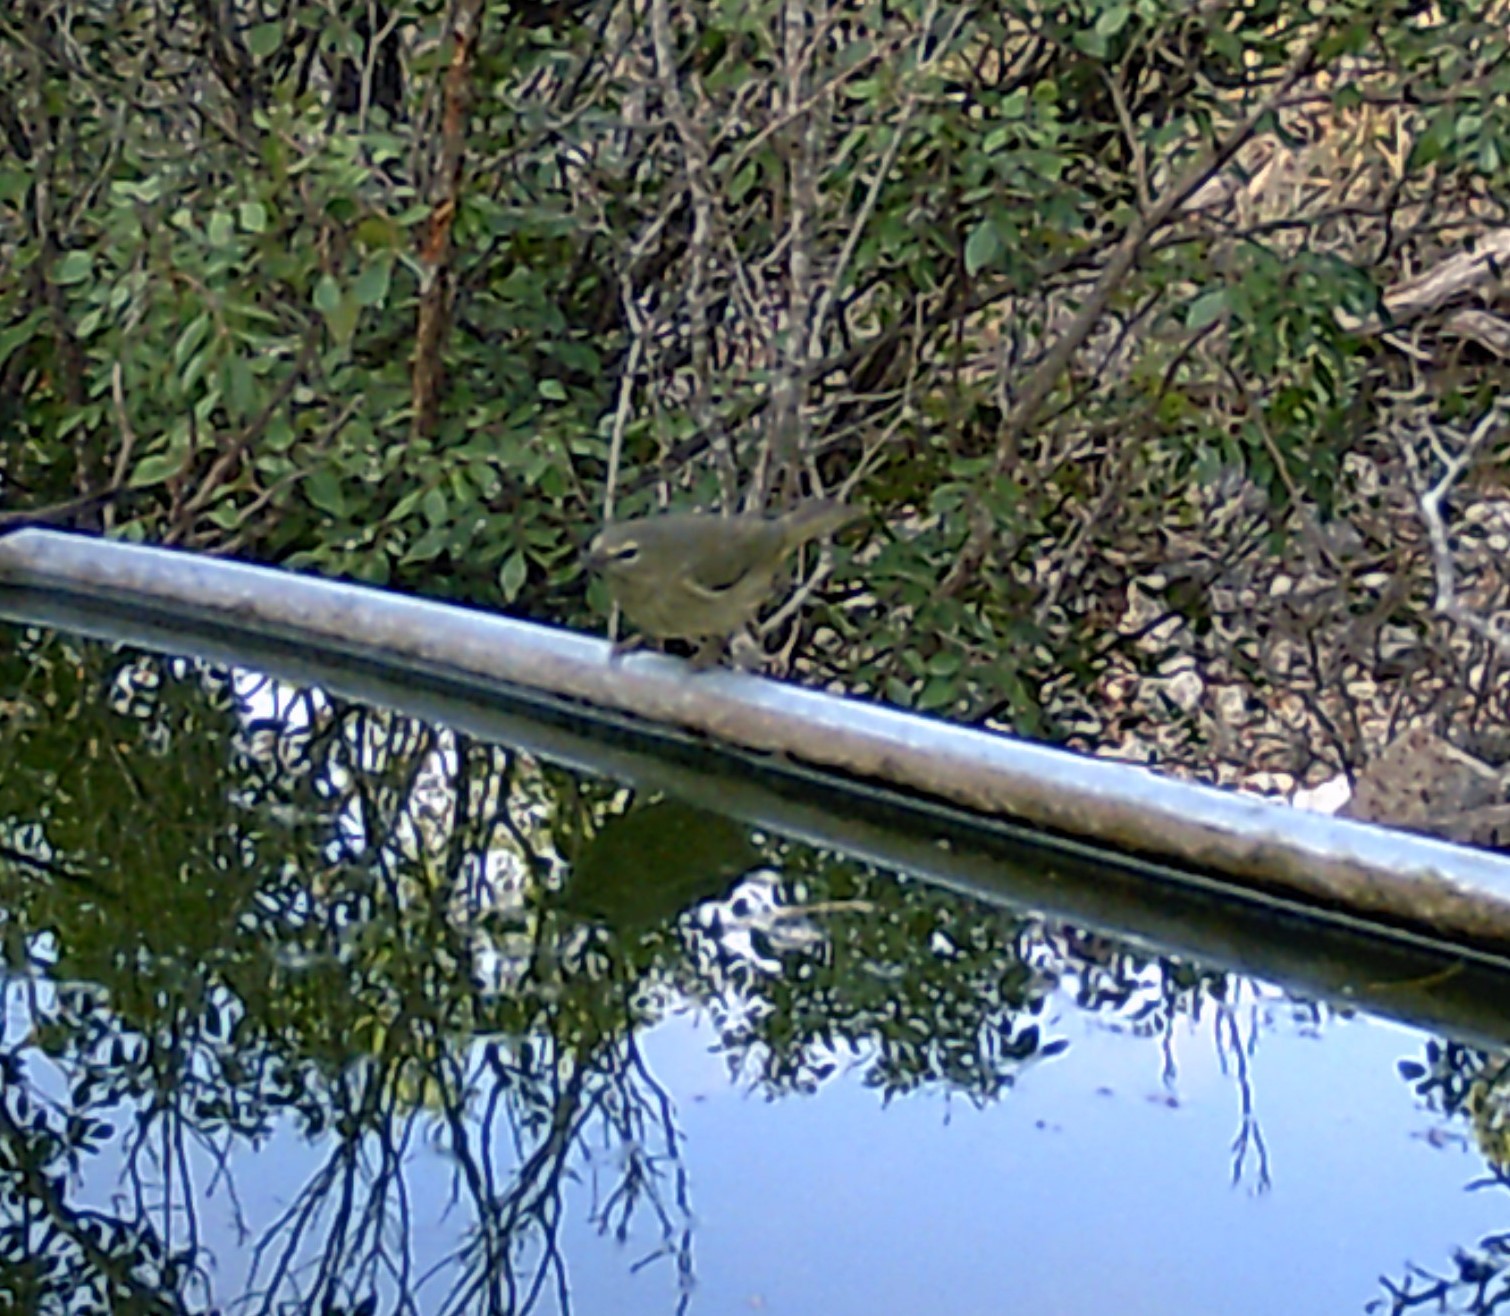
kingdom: Animalia
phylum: Chordata
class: Aves
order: Passeriformes
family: Parulidae
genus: Leiothlypis
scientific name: Leiothlypis celata
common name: Orange-crowned warbler
